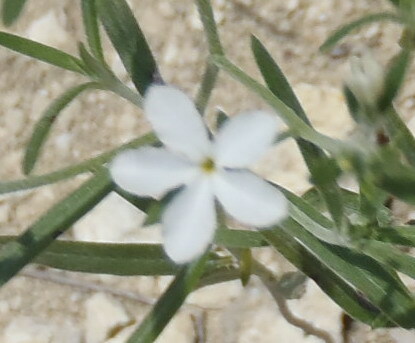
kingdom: Plantae
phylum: Tracheophyta
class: Magnoliopsida
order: Boraginales
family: Heliotropiaceae
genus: Euploca
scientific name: Euploca tenella
